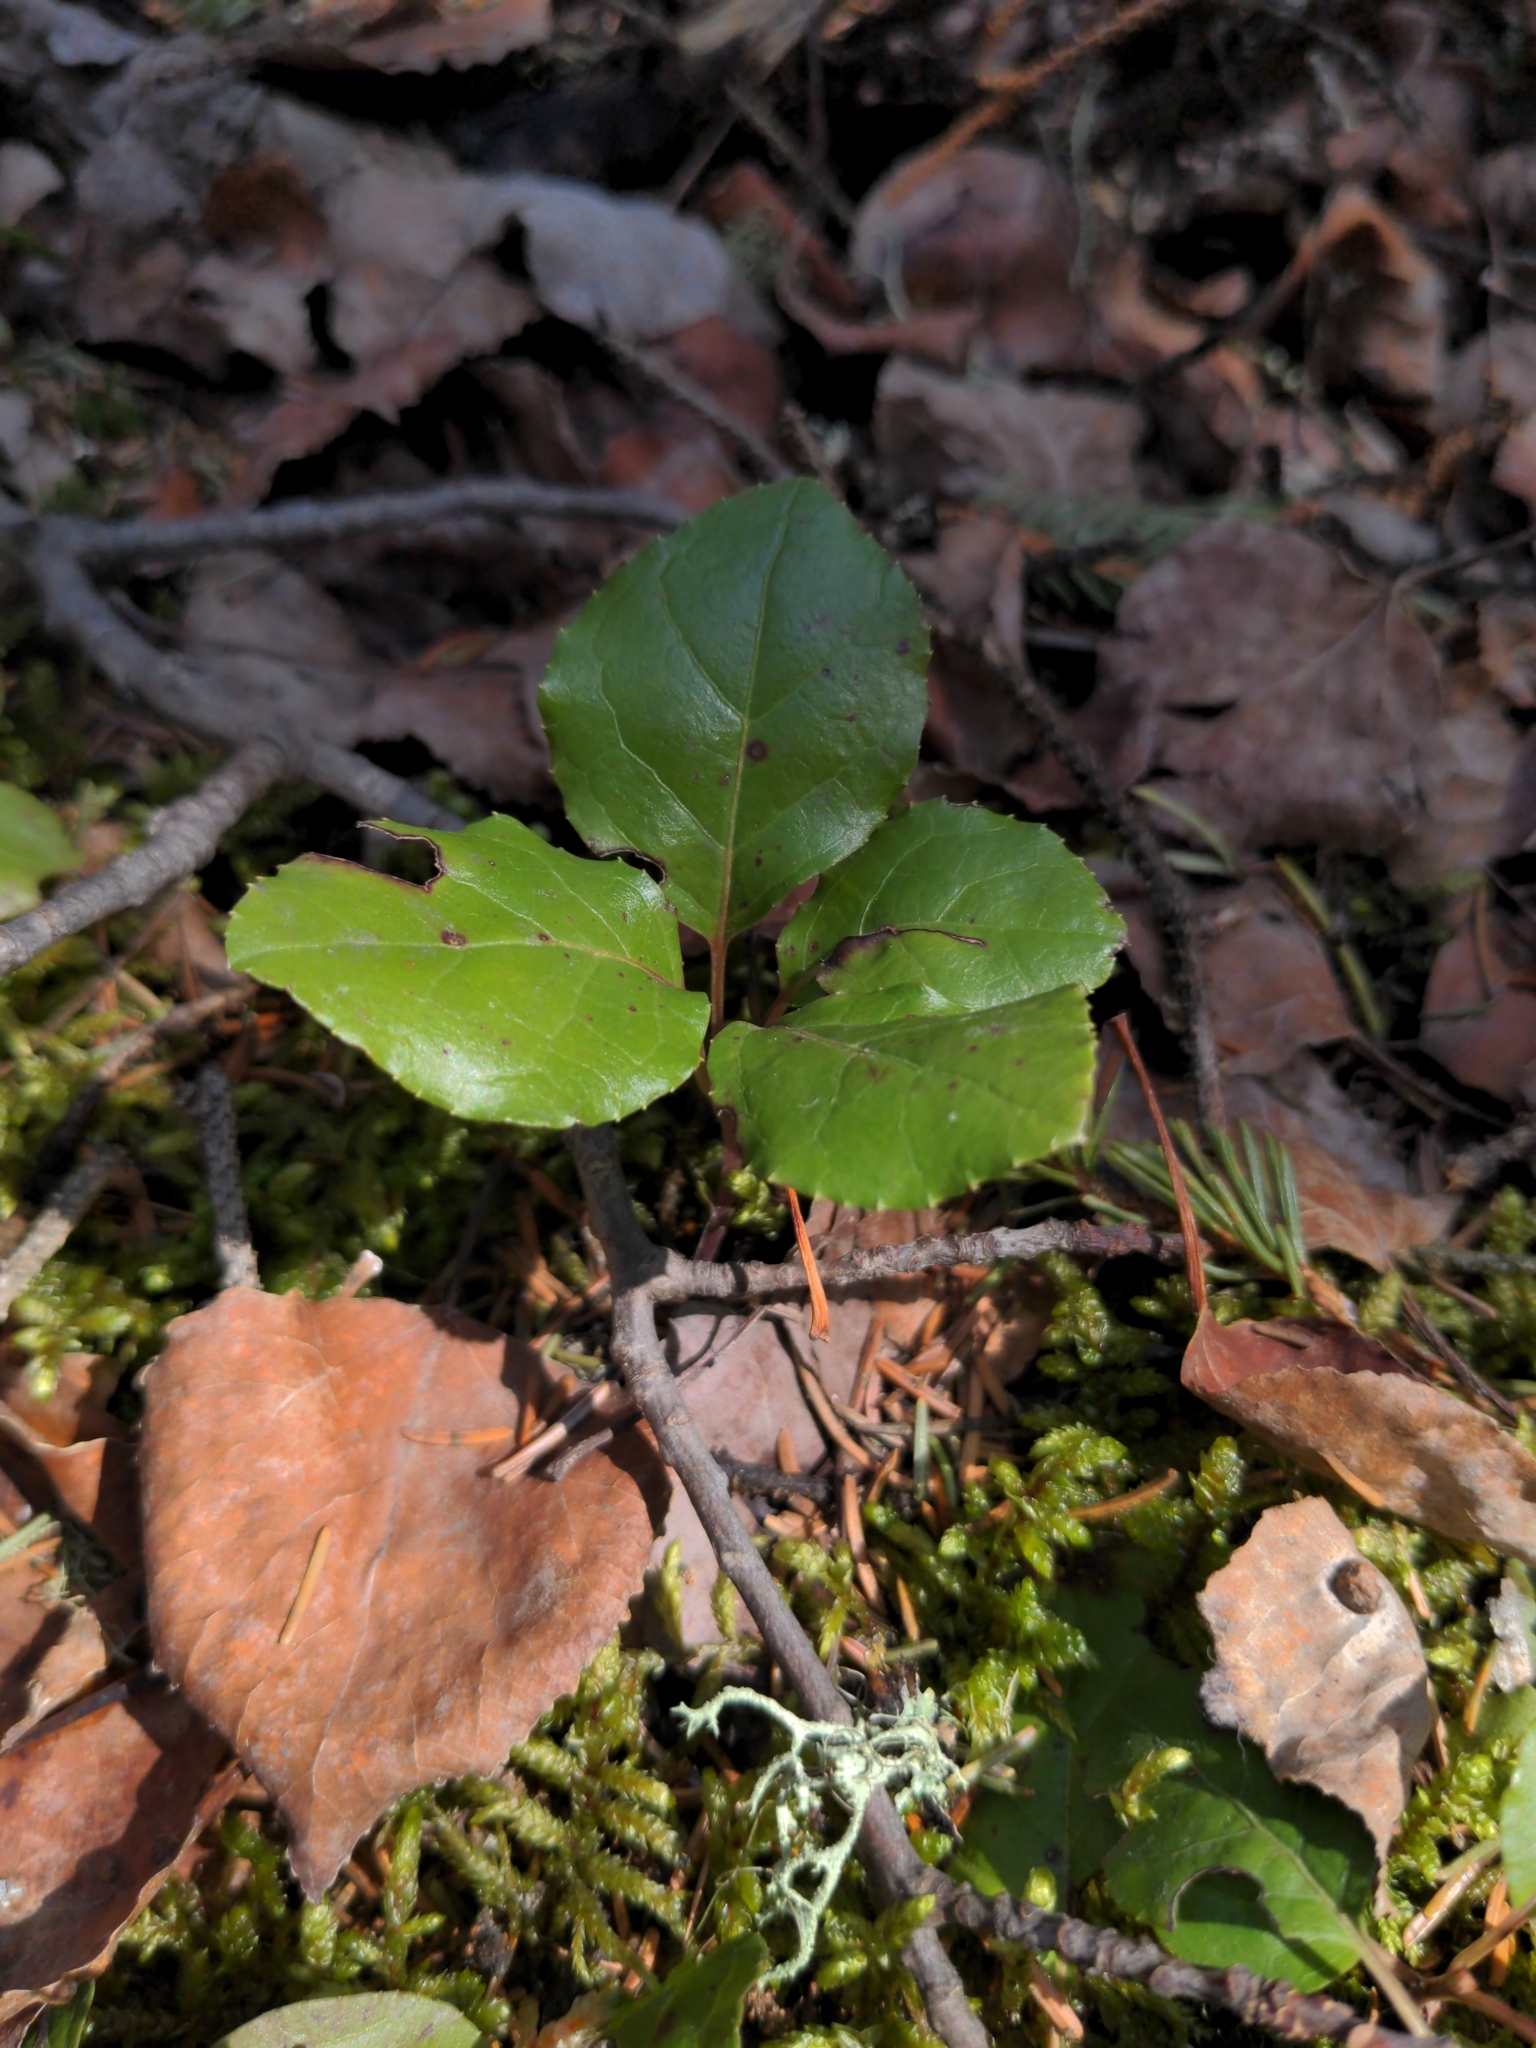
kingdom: Plantae
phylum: Tracheophyta
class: Magnoliopsida
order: Ericales
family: Ericaceae
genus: Orthilia
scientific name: Orthilia secunda
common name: One-sided orthilia
